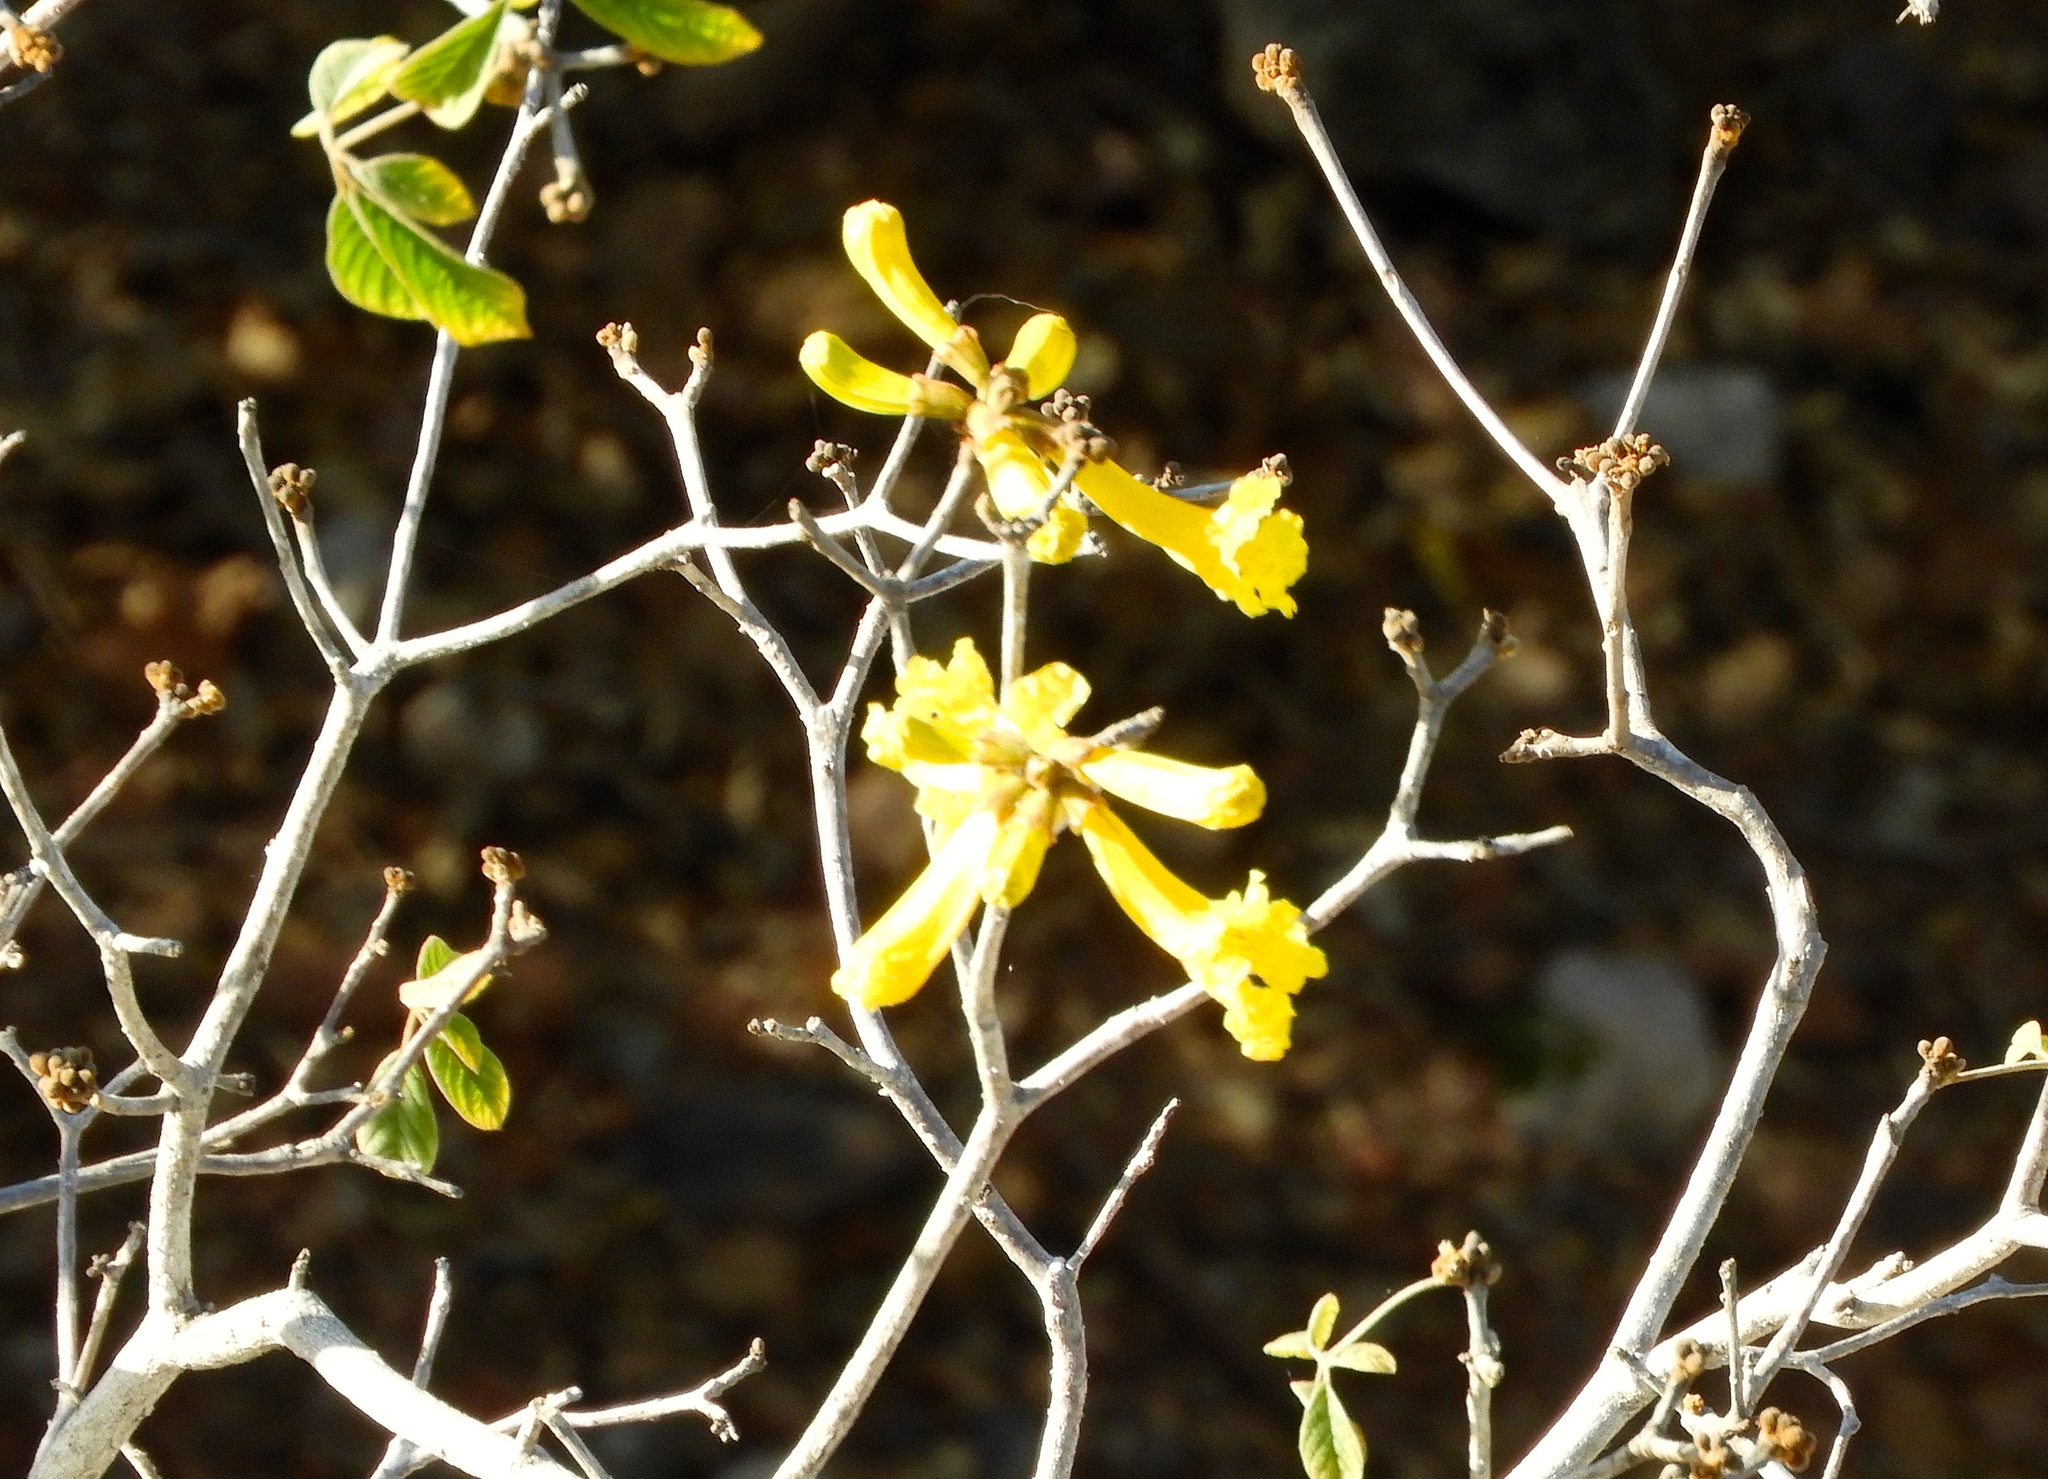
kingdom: Plantae
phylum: Tracheophyta
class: Magnoliopsida
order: Lamiales
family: Bignoniaceae
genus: Handroanthus
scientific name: Handroanthus chrysanthus
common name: Trumpet trees
